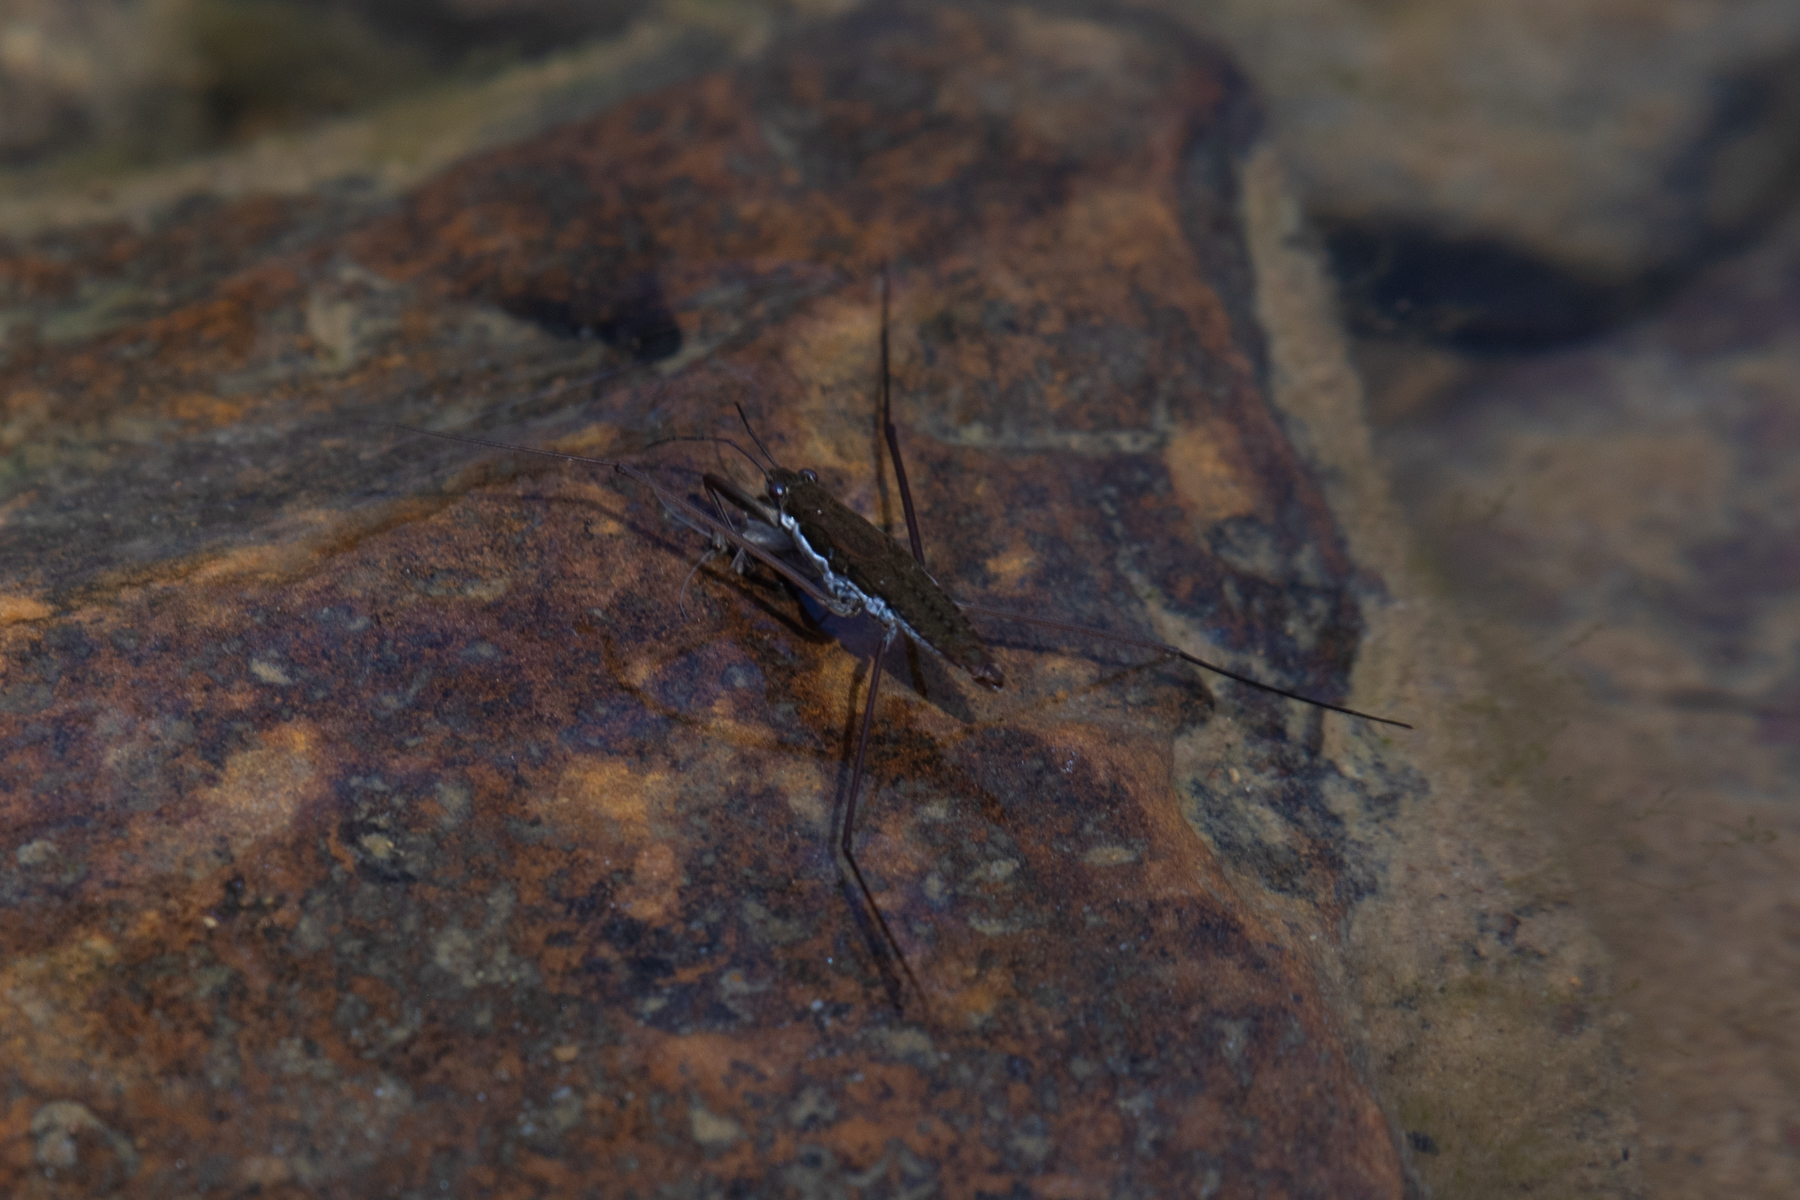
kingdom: Animalia
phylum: Arthropoda
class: Insecta
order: Hemiptera
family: Gerridae
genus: Aquarius
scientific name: Aquarius
